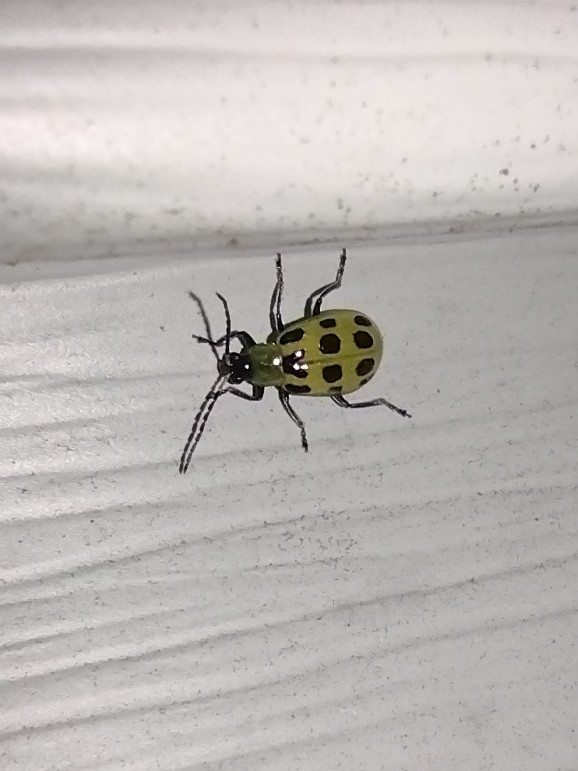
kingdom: Animalia
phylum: Arthropoda
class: Insecta
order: Coleoptera
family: Chrysomelidae
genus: Diabrotica
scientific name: Diabrotica undecimpunctata
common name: Spotted cucumber beetle
